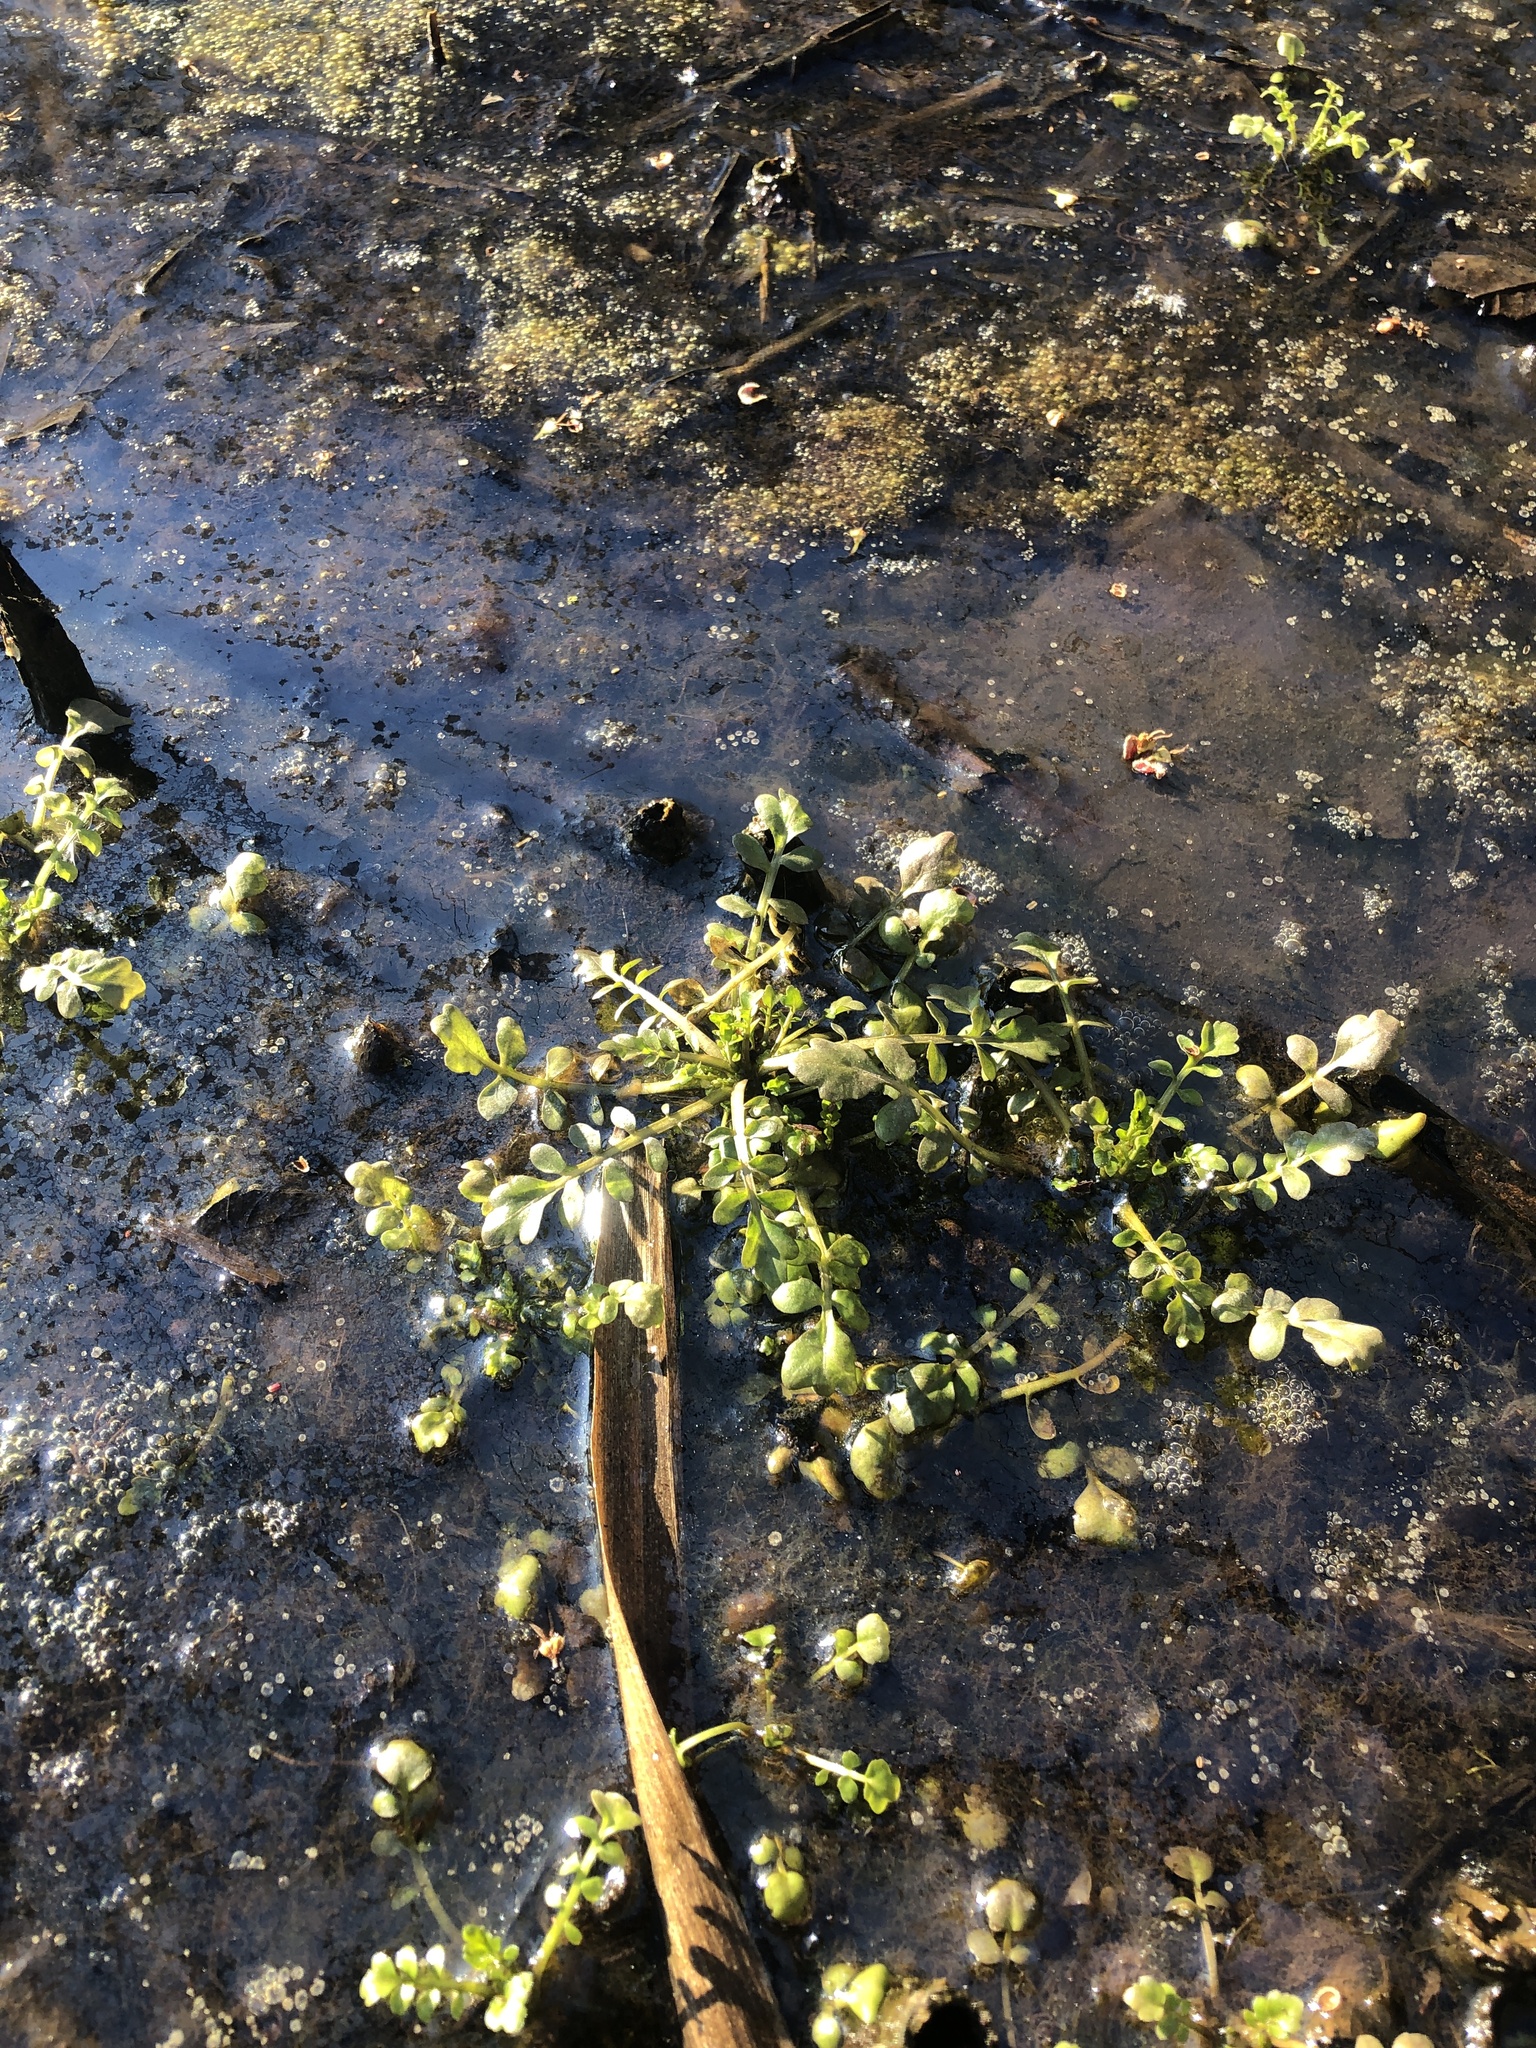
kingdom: Plantae
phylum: Tracheophyta
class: Magnoliopsida
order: Brassicales
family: Brassicaceae
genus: Cardamine
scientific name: Cardamine pensylvanica
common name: Pennsylvania bittercress
